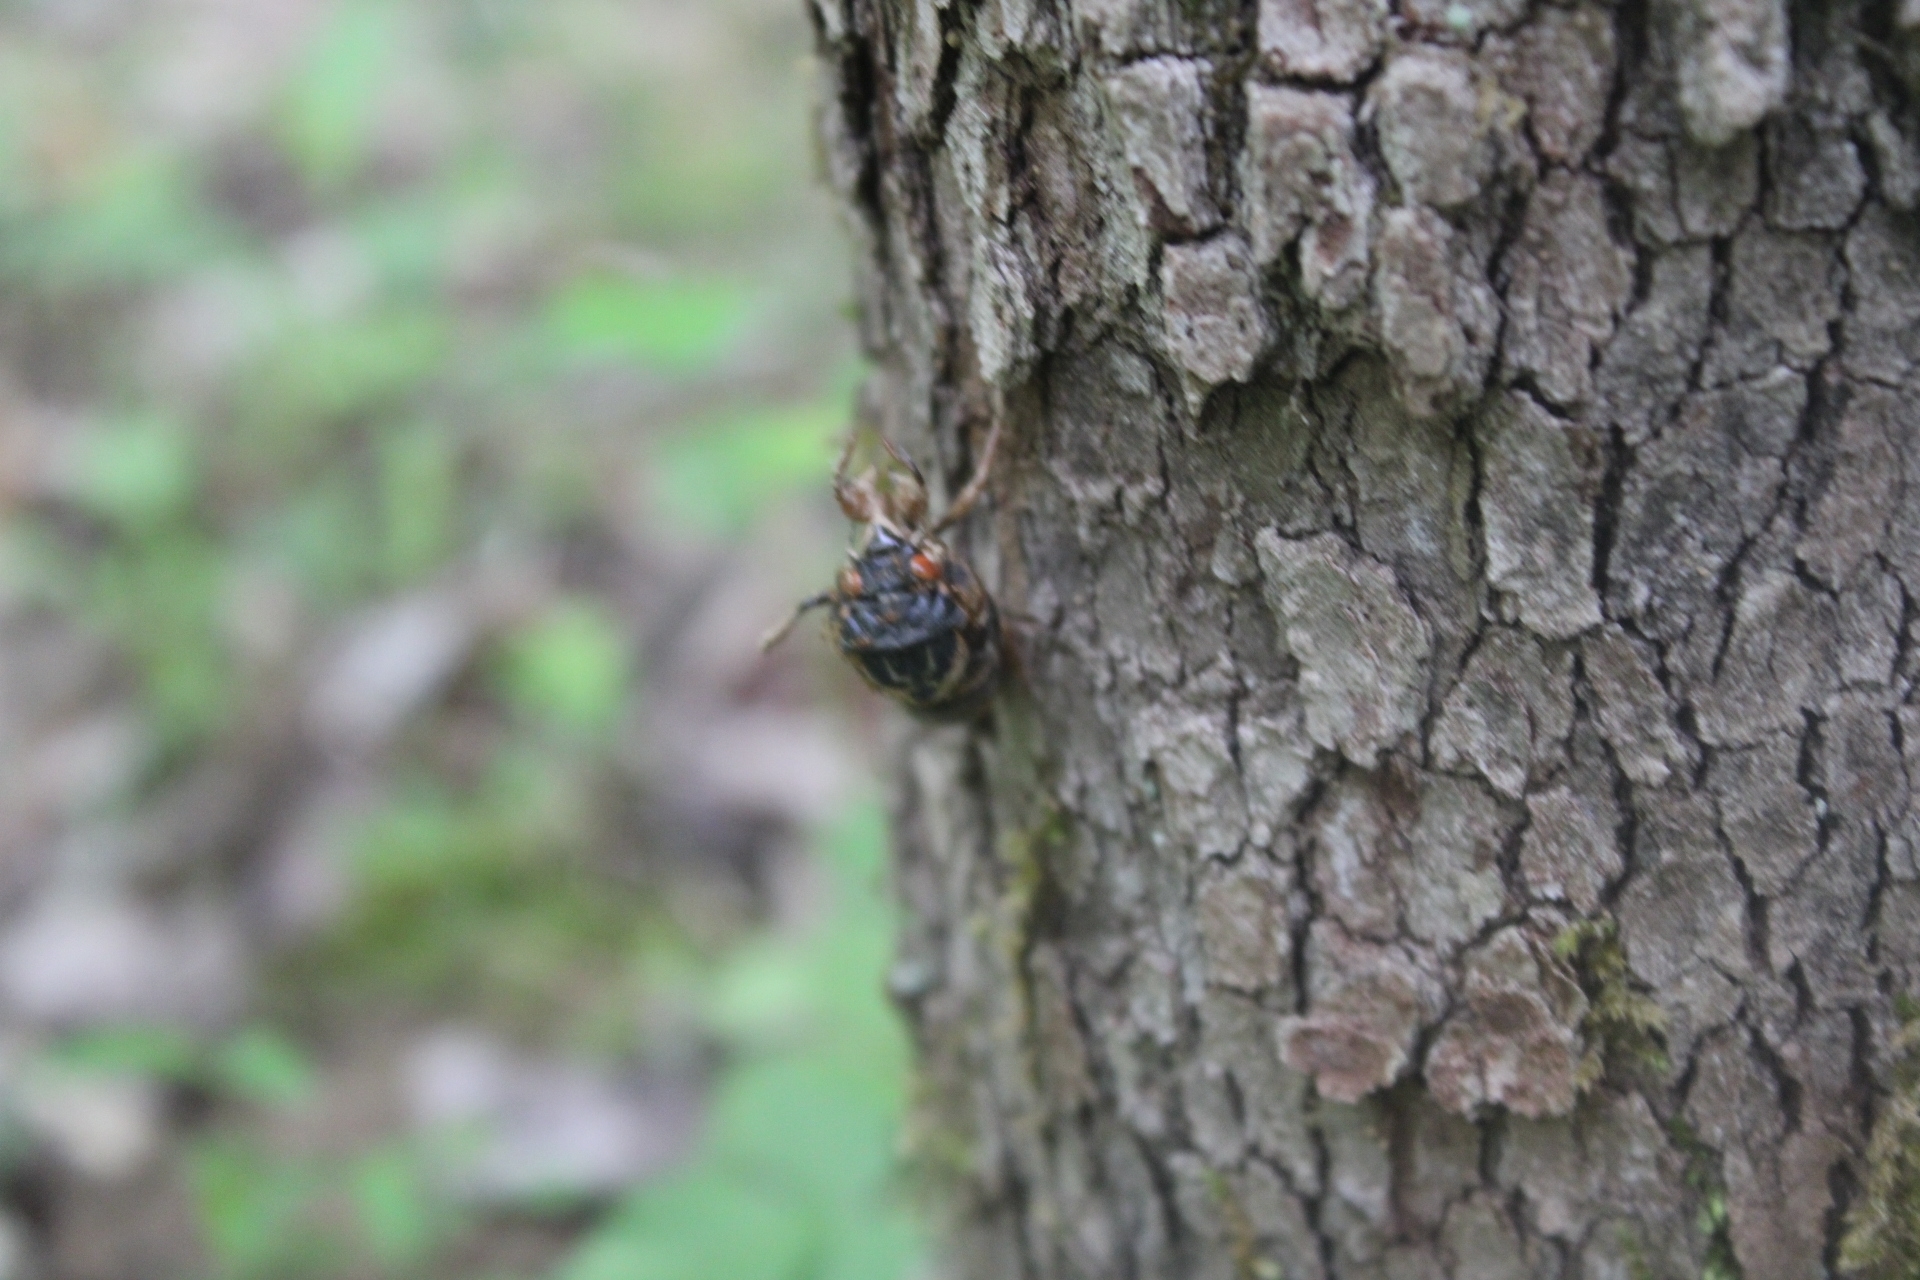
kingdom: Animalia
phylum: Arthropoda
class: Insecta
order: Hemiptera
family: Cicadidae
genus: Magicicada
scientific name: Magicicada
